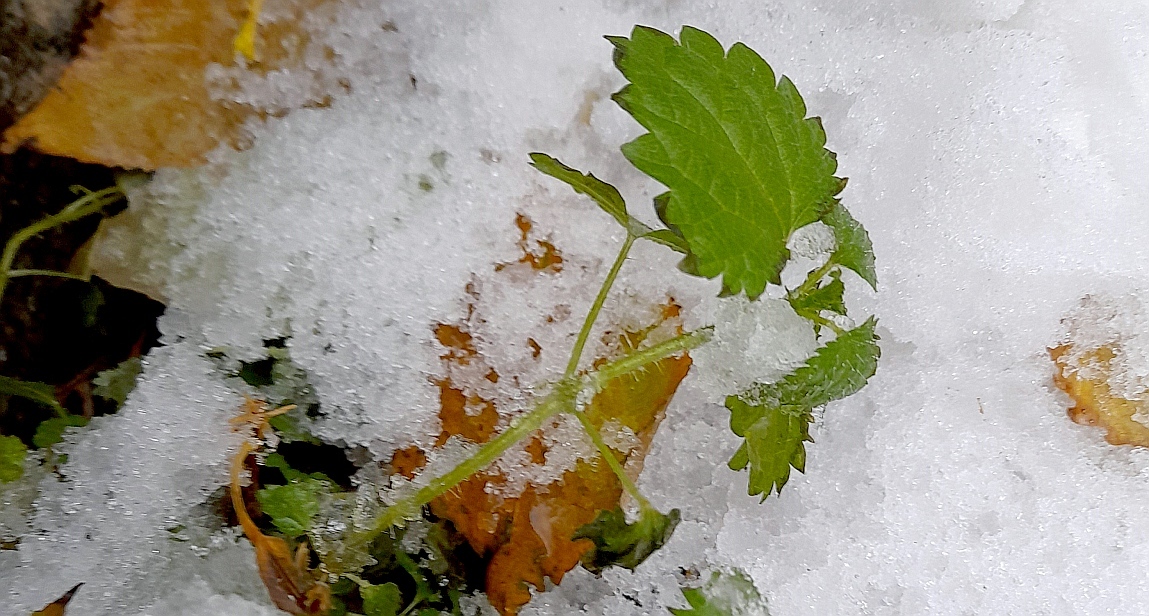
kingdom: Plantae
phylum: Tracheophyta
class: Magnoliopsida
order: Rosales
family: Urticaceae
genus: Urtica
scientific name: Urtica dioica
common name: Common nettle
